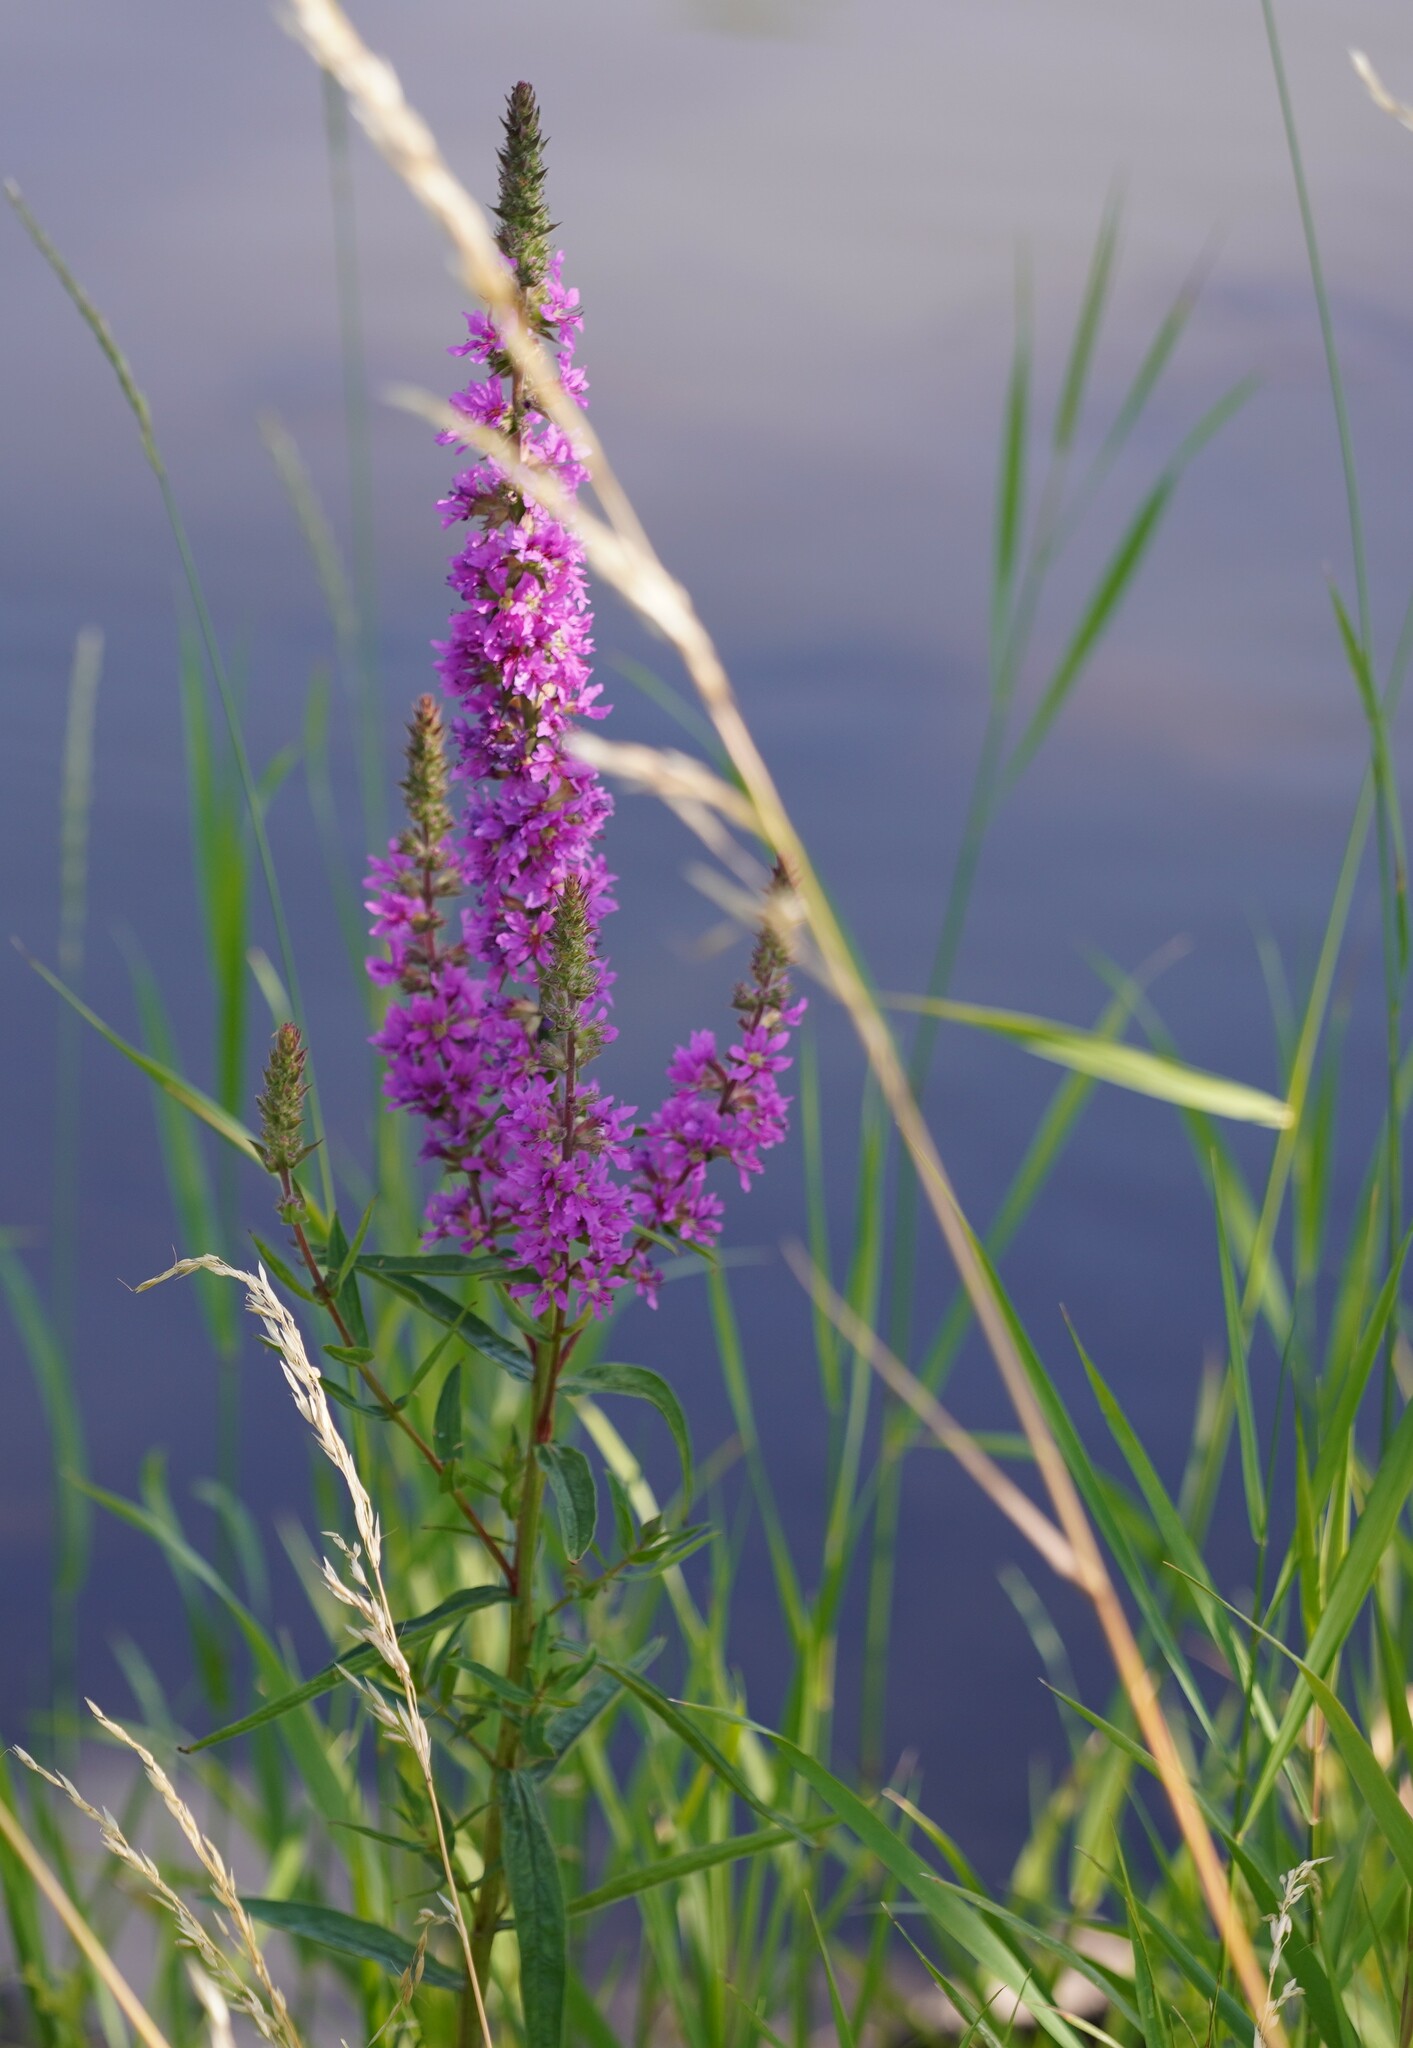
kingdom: Plantae
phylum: Tracheophyta
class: Magnoliopsida
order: Myrtales
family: Lythraceae
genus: Lythrum
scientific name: Lythrum salicaria
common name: Purple loosestrife
